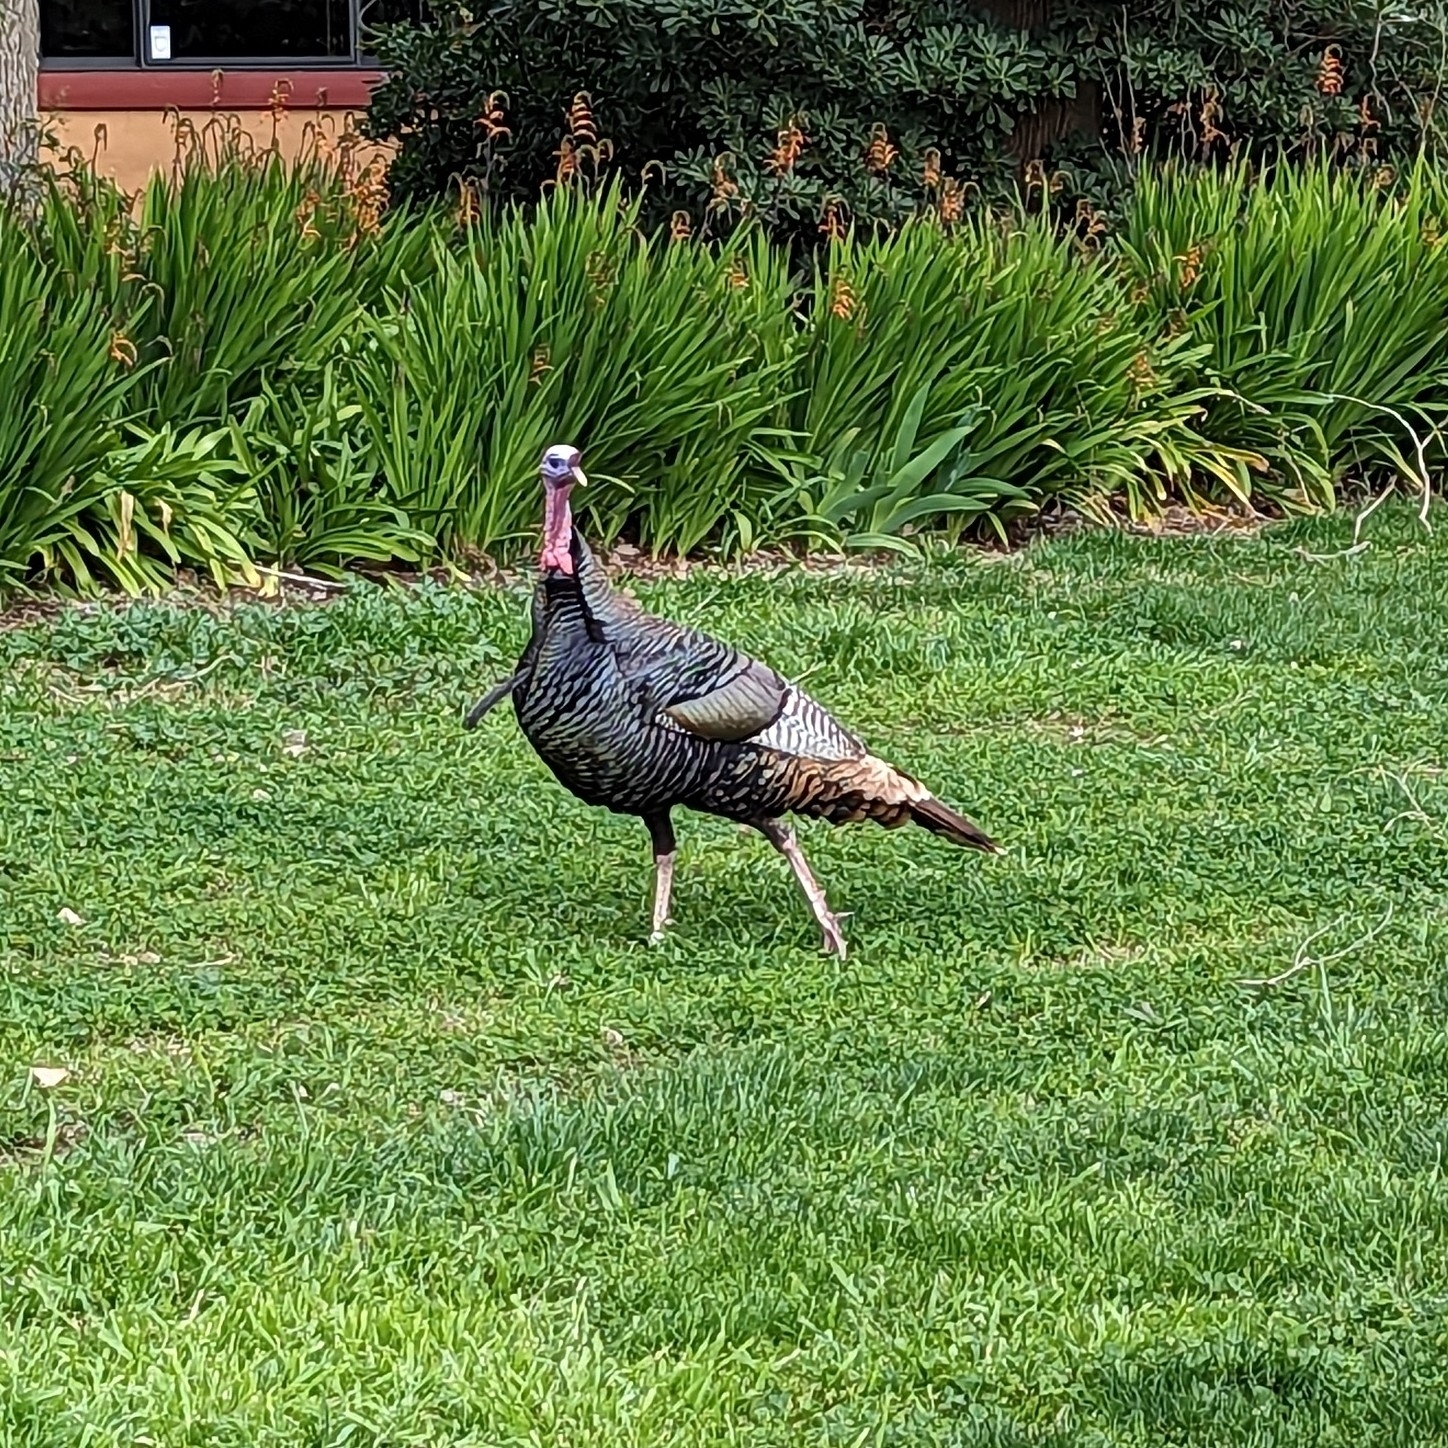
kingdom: Animalia
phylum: Chordata
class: Aves
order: Galliformes
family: Phasianidae
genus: Meleagris
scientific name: Meleagris gallopavo
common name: Wild turkey
